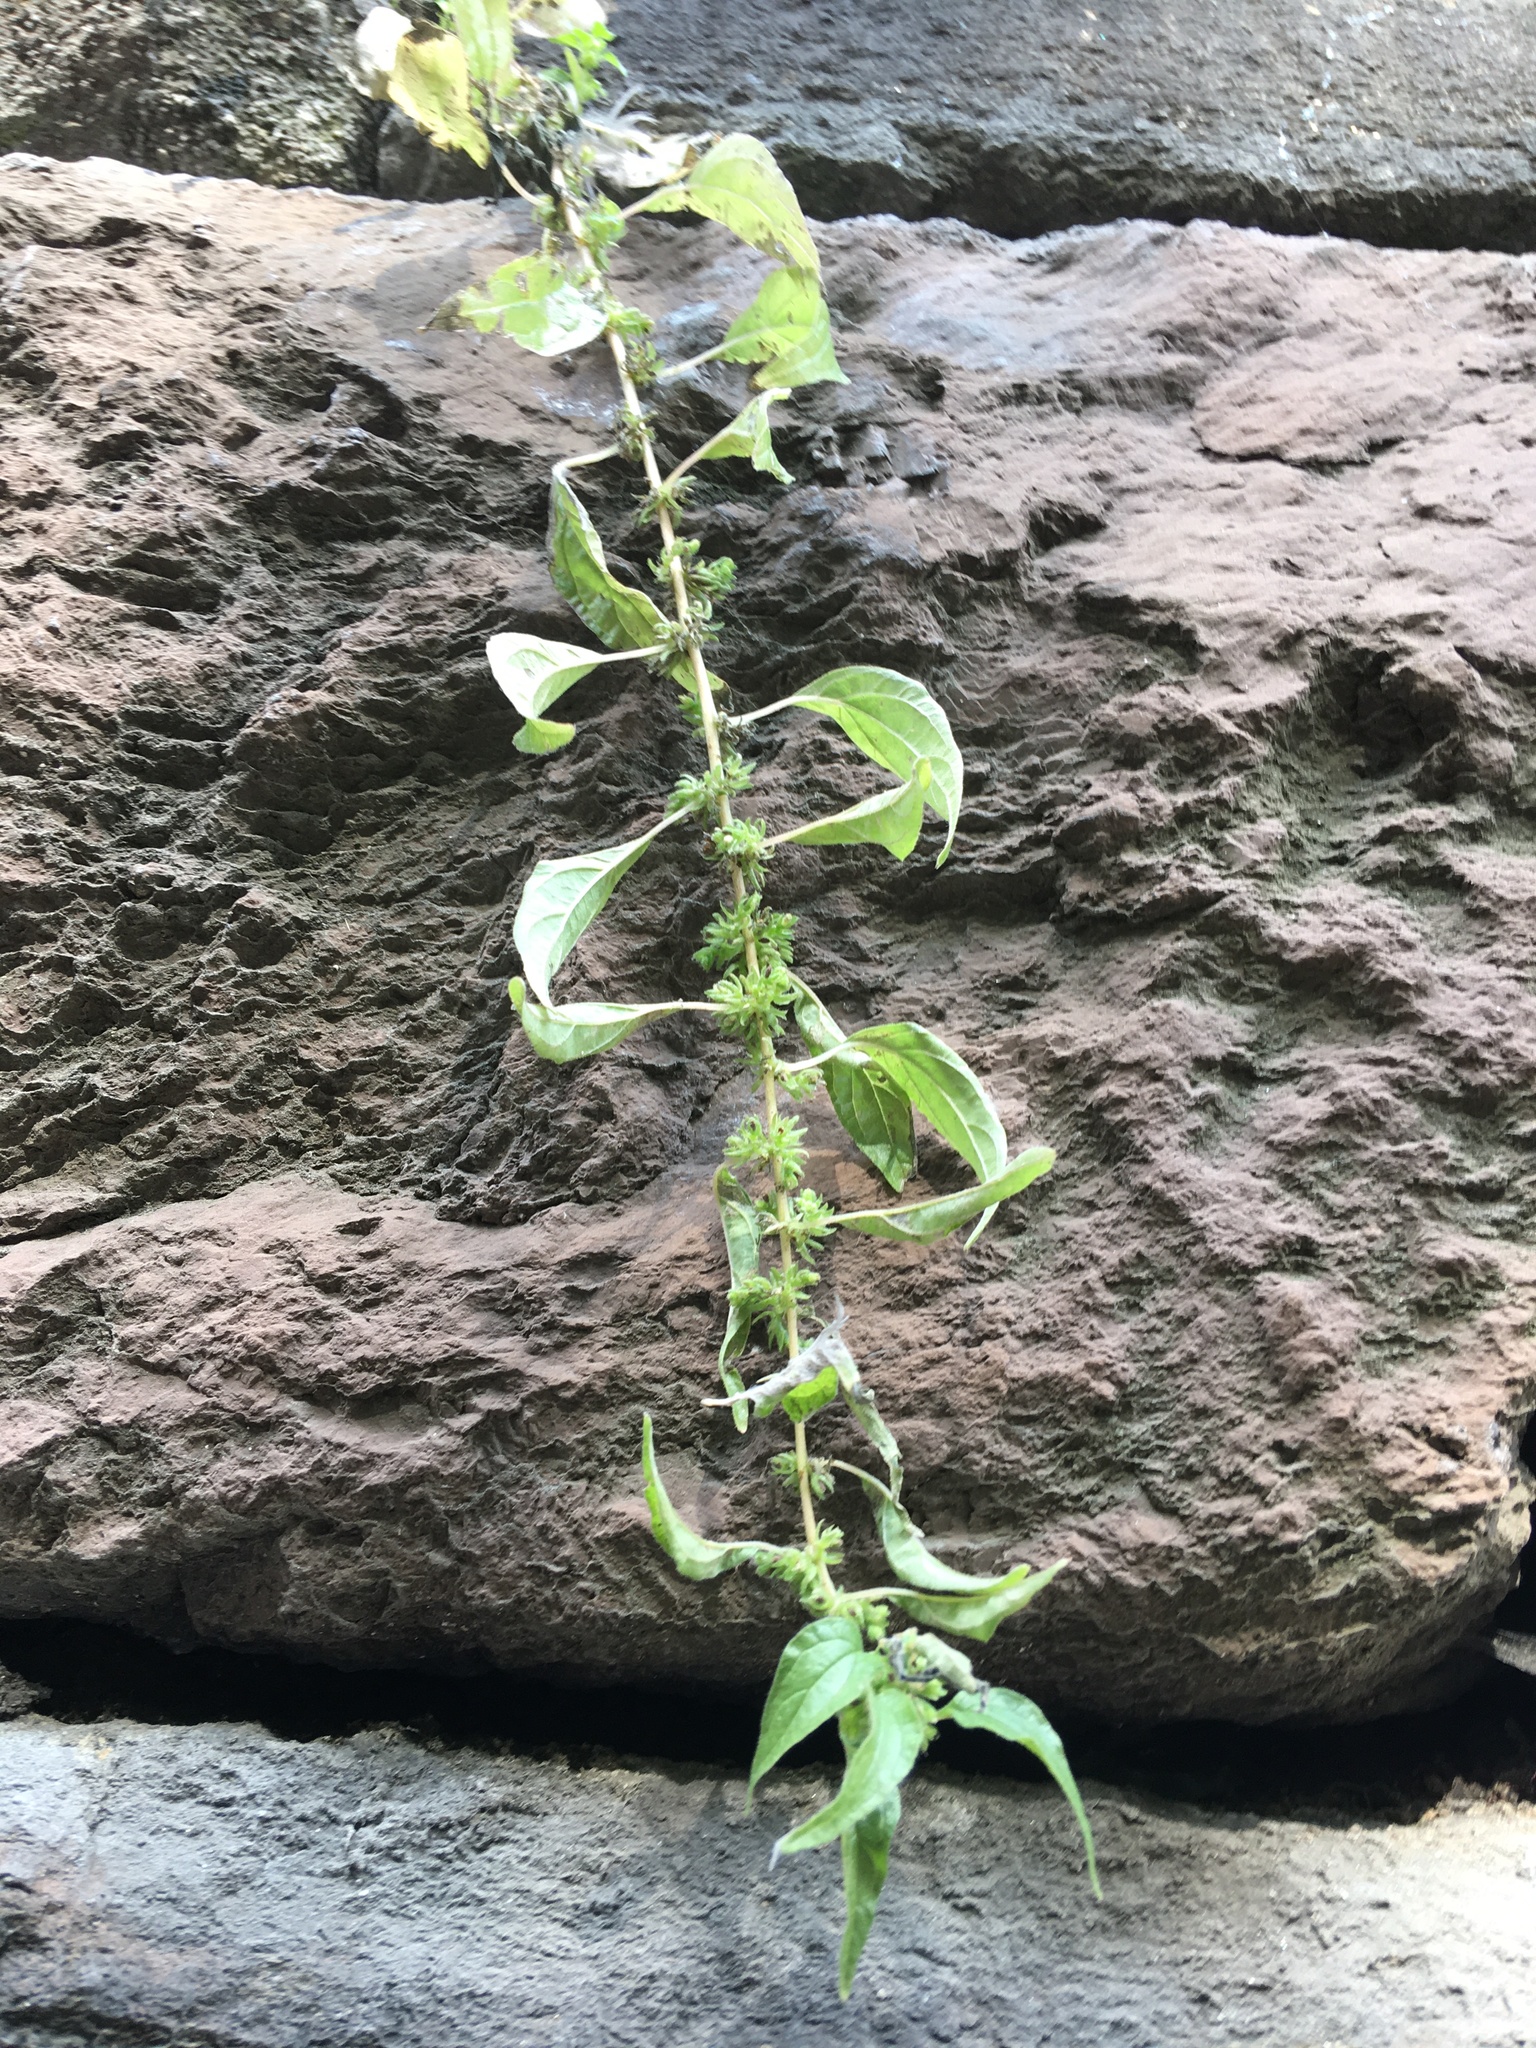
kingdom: Plantae
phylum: Tracheophyta
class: Magnoliopsida
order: Rosales
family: Urticaceae
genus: Parietaria
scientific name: Parietaria pensylvanica
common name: Pennsylvania pellitory
